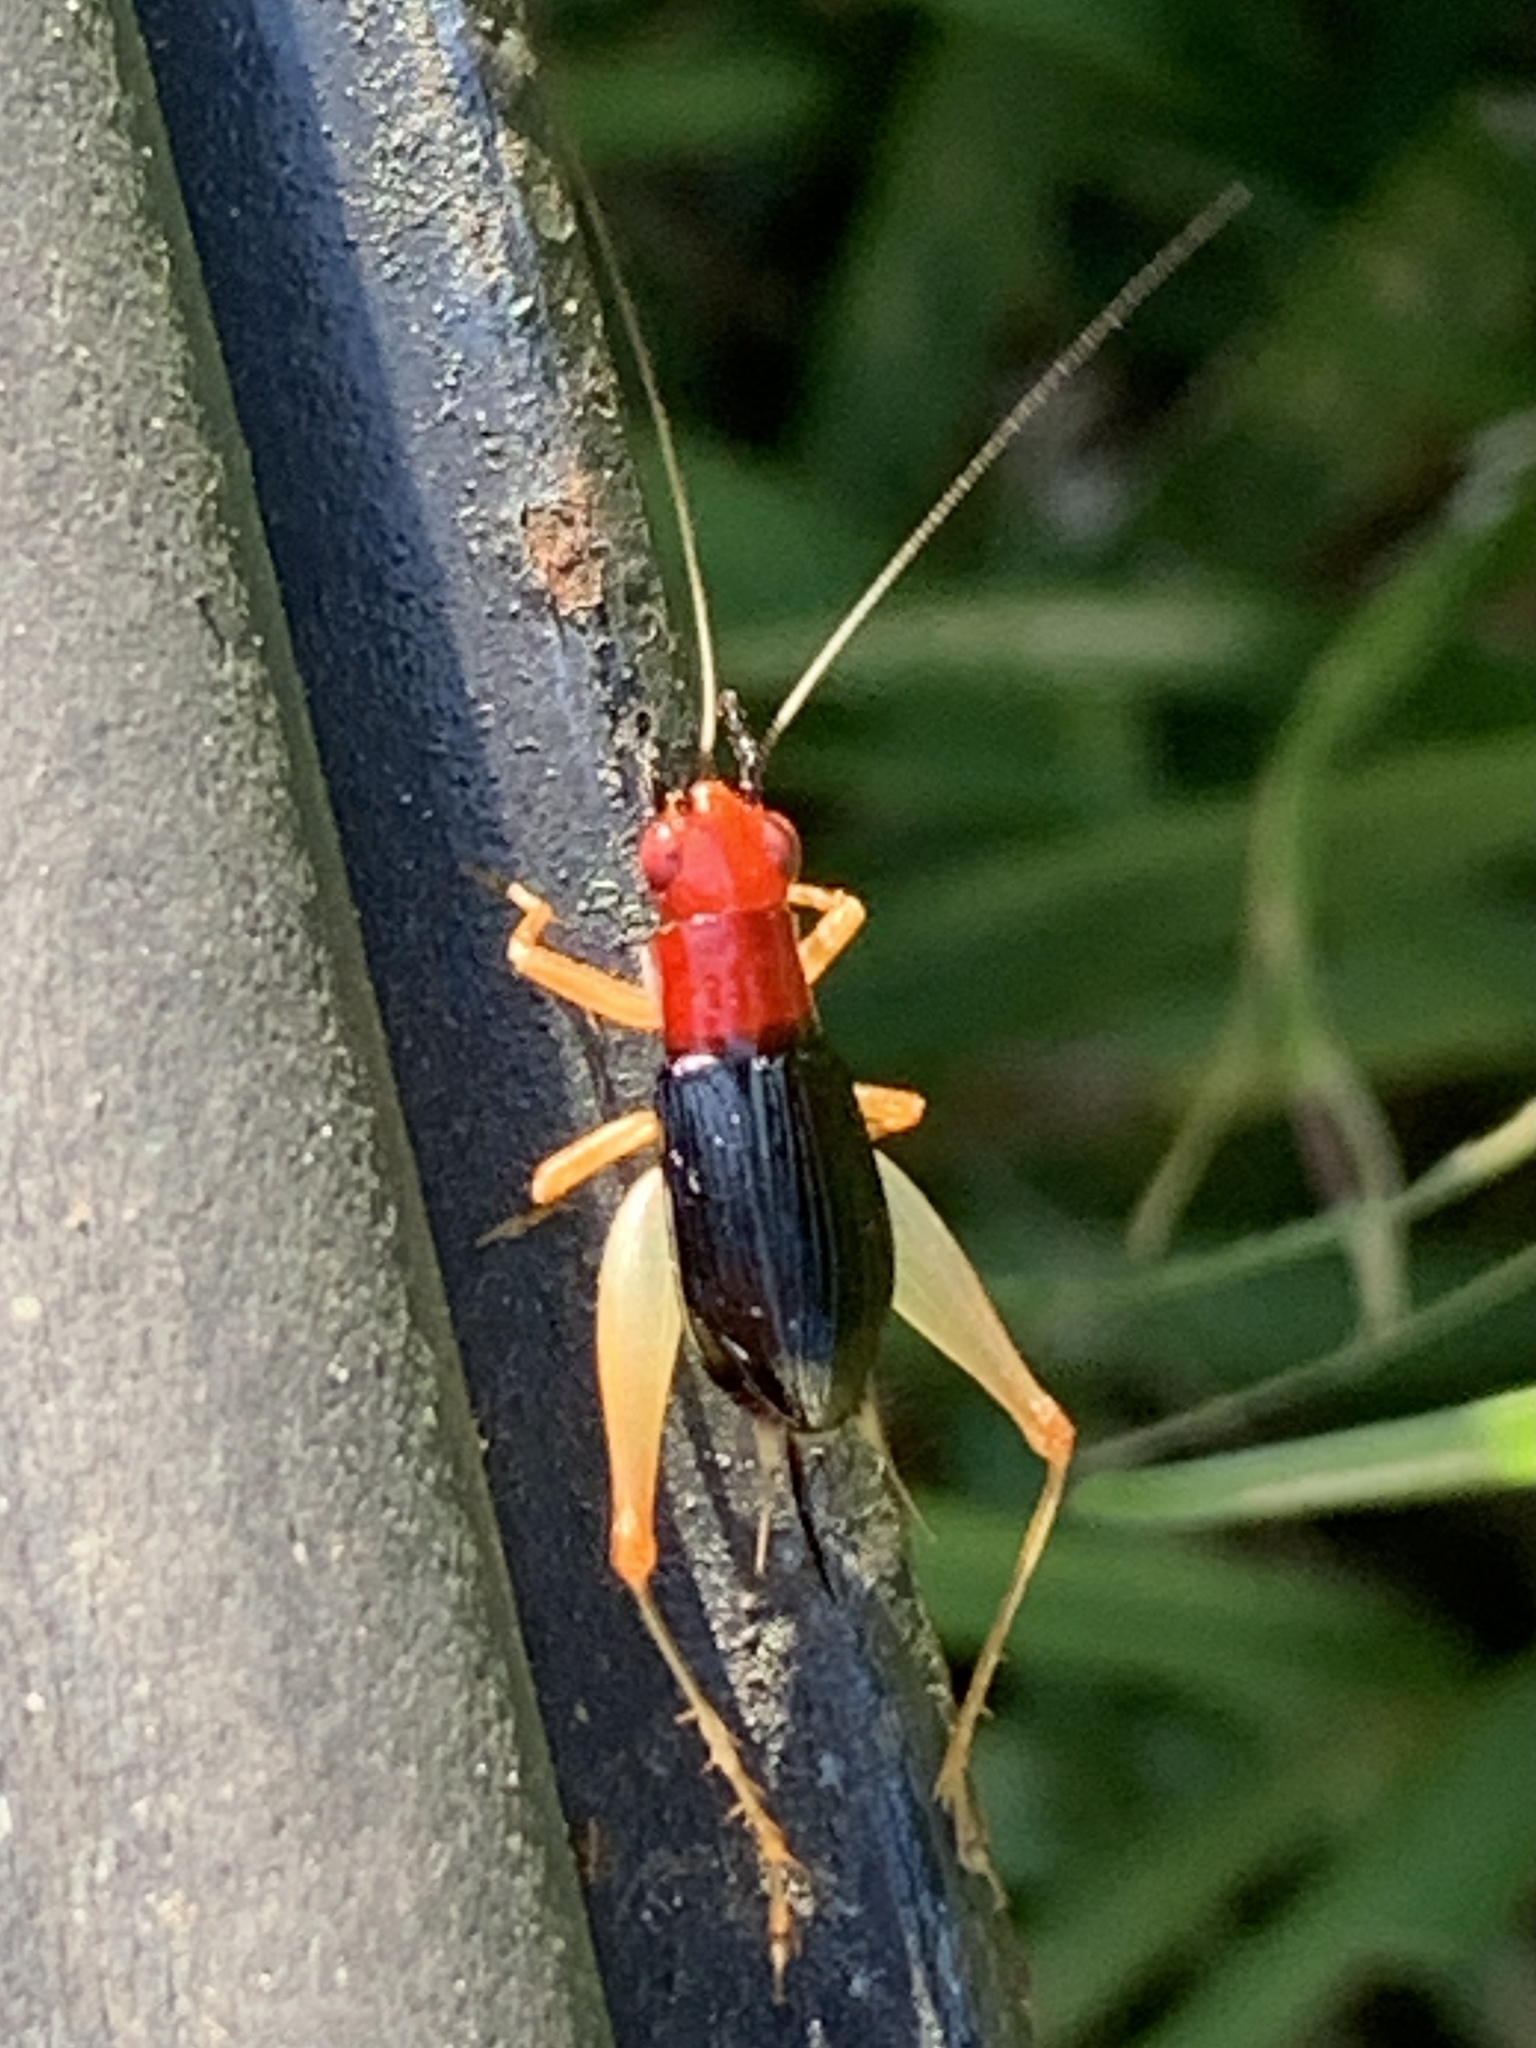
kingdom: Animalia
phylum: Arthropoda
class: Insecta
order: Orthoptera
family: Trigonidiidae
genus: Phyllopalpus
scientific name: Phyllopalpus pulchellus
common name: Handsome trig
